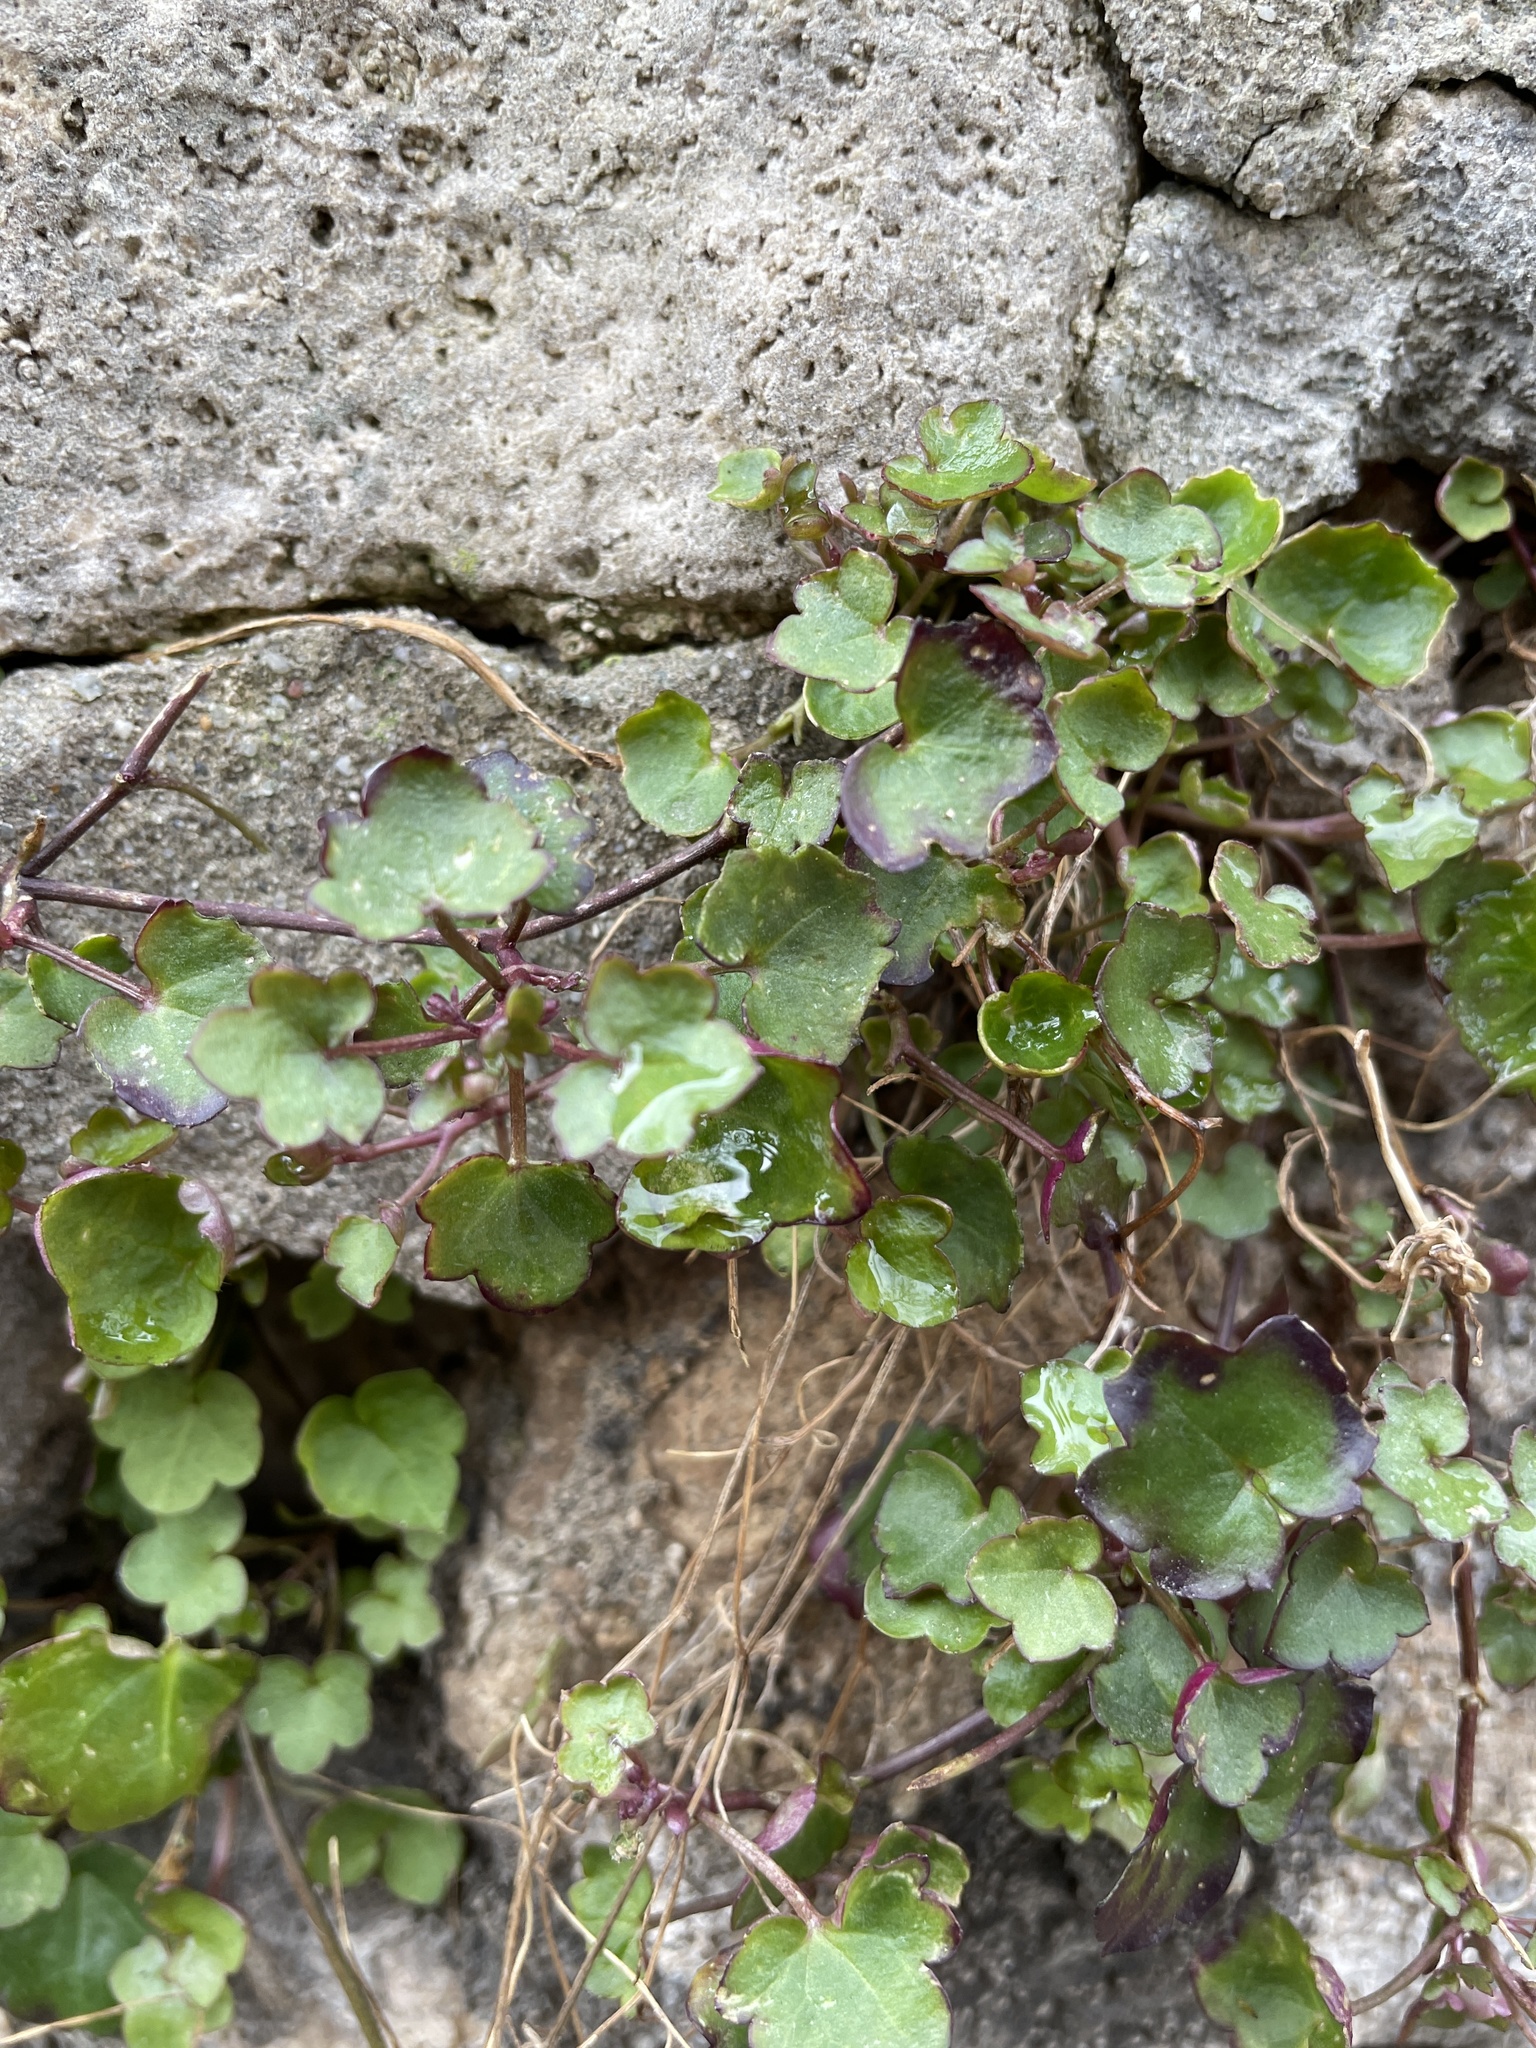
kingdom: Plantae
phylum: Tracheophyta
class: Magnoliopsida
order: Lamiales
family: Plantaginaceae
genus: Cymbalaria
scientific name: Cymbalaria muralis
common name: Ivy-leaved toadflax
